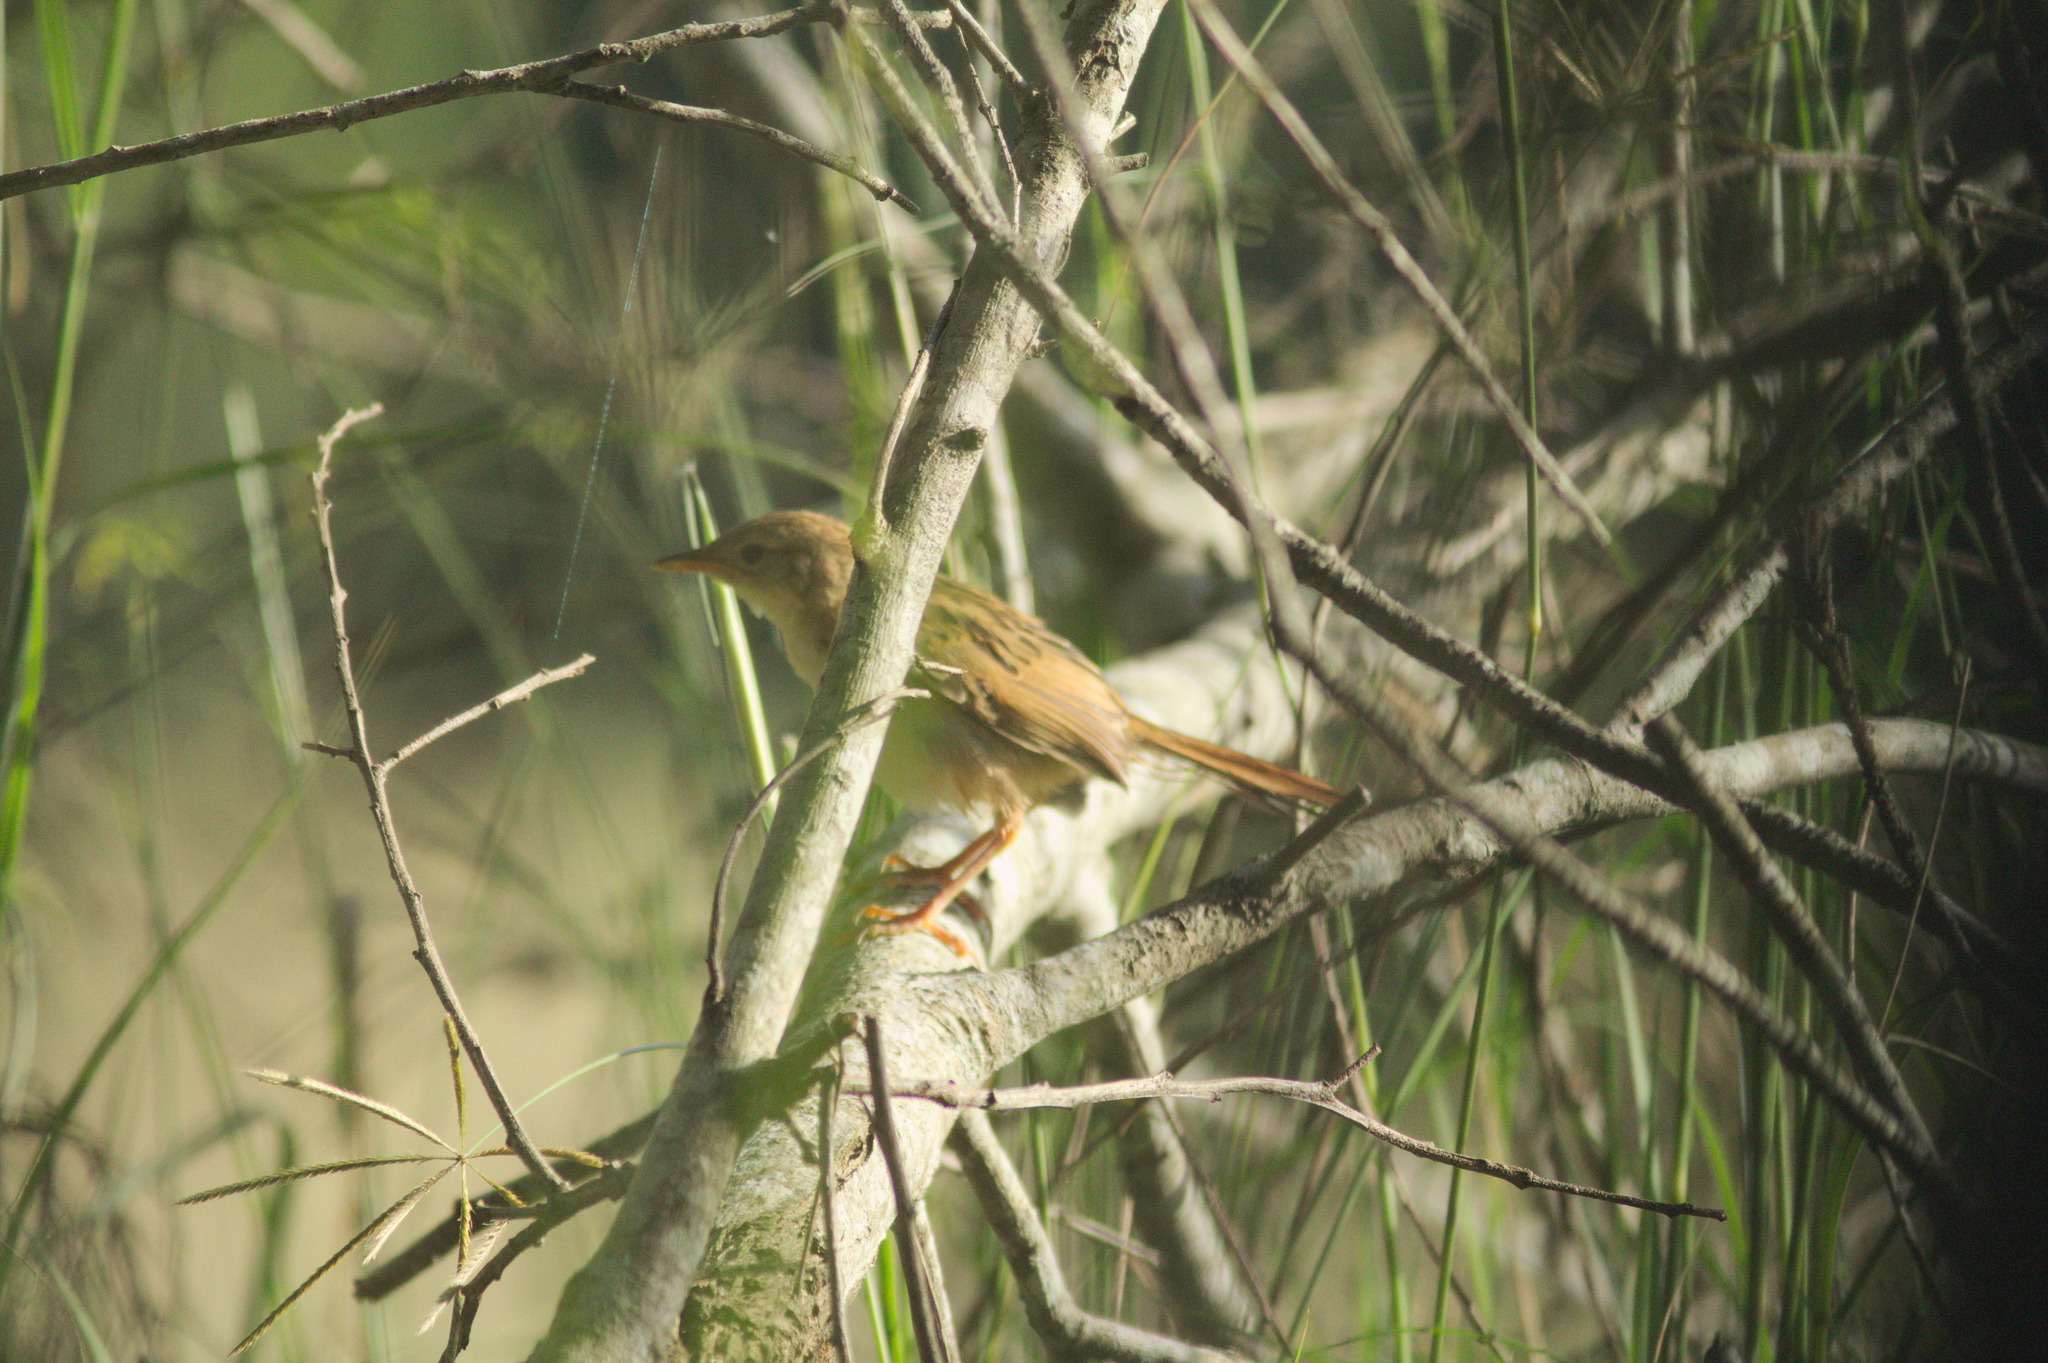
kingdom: Animalia
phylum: Chordata
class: Aves
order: Passeriformes
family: Locustellidae
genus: Megalurus
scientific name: Megalurus timoriensis
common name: Tawny grassbird
